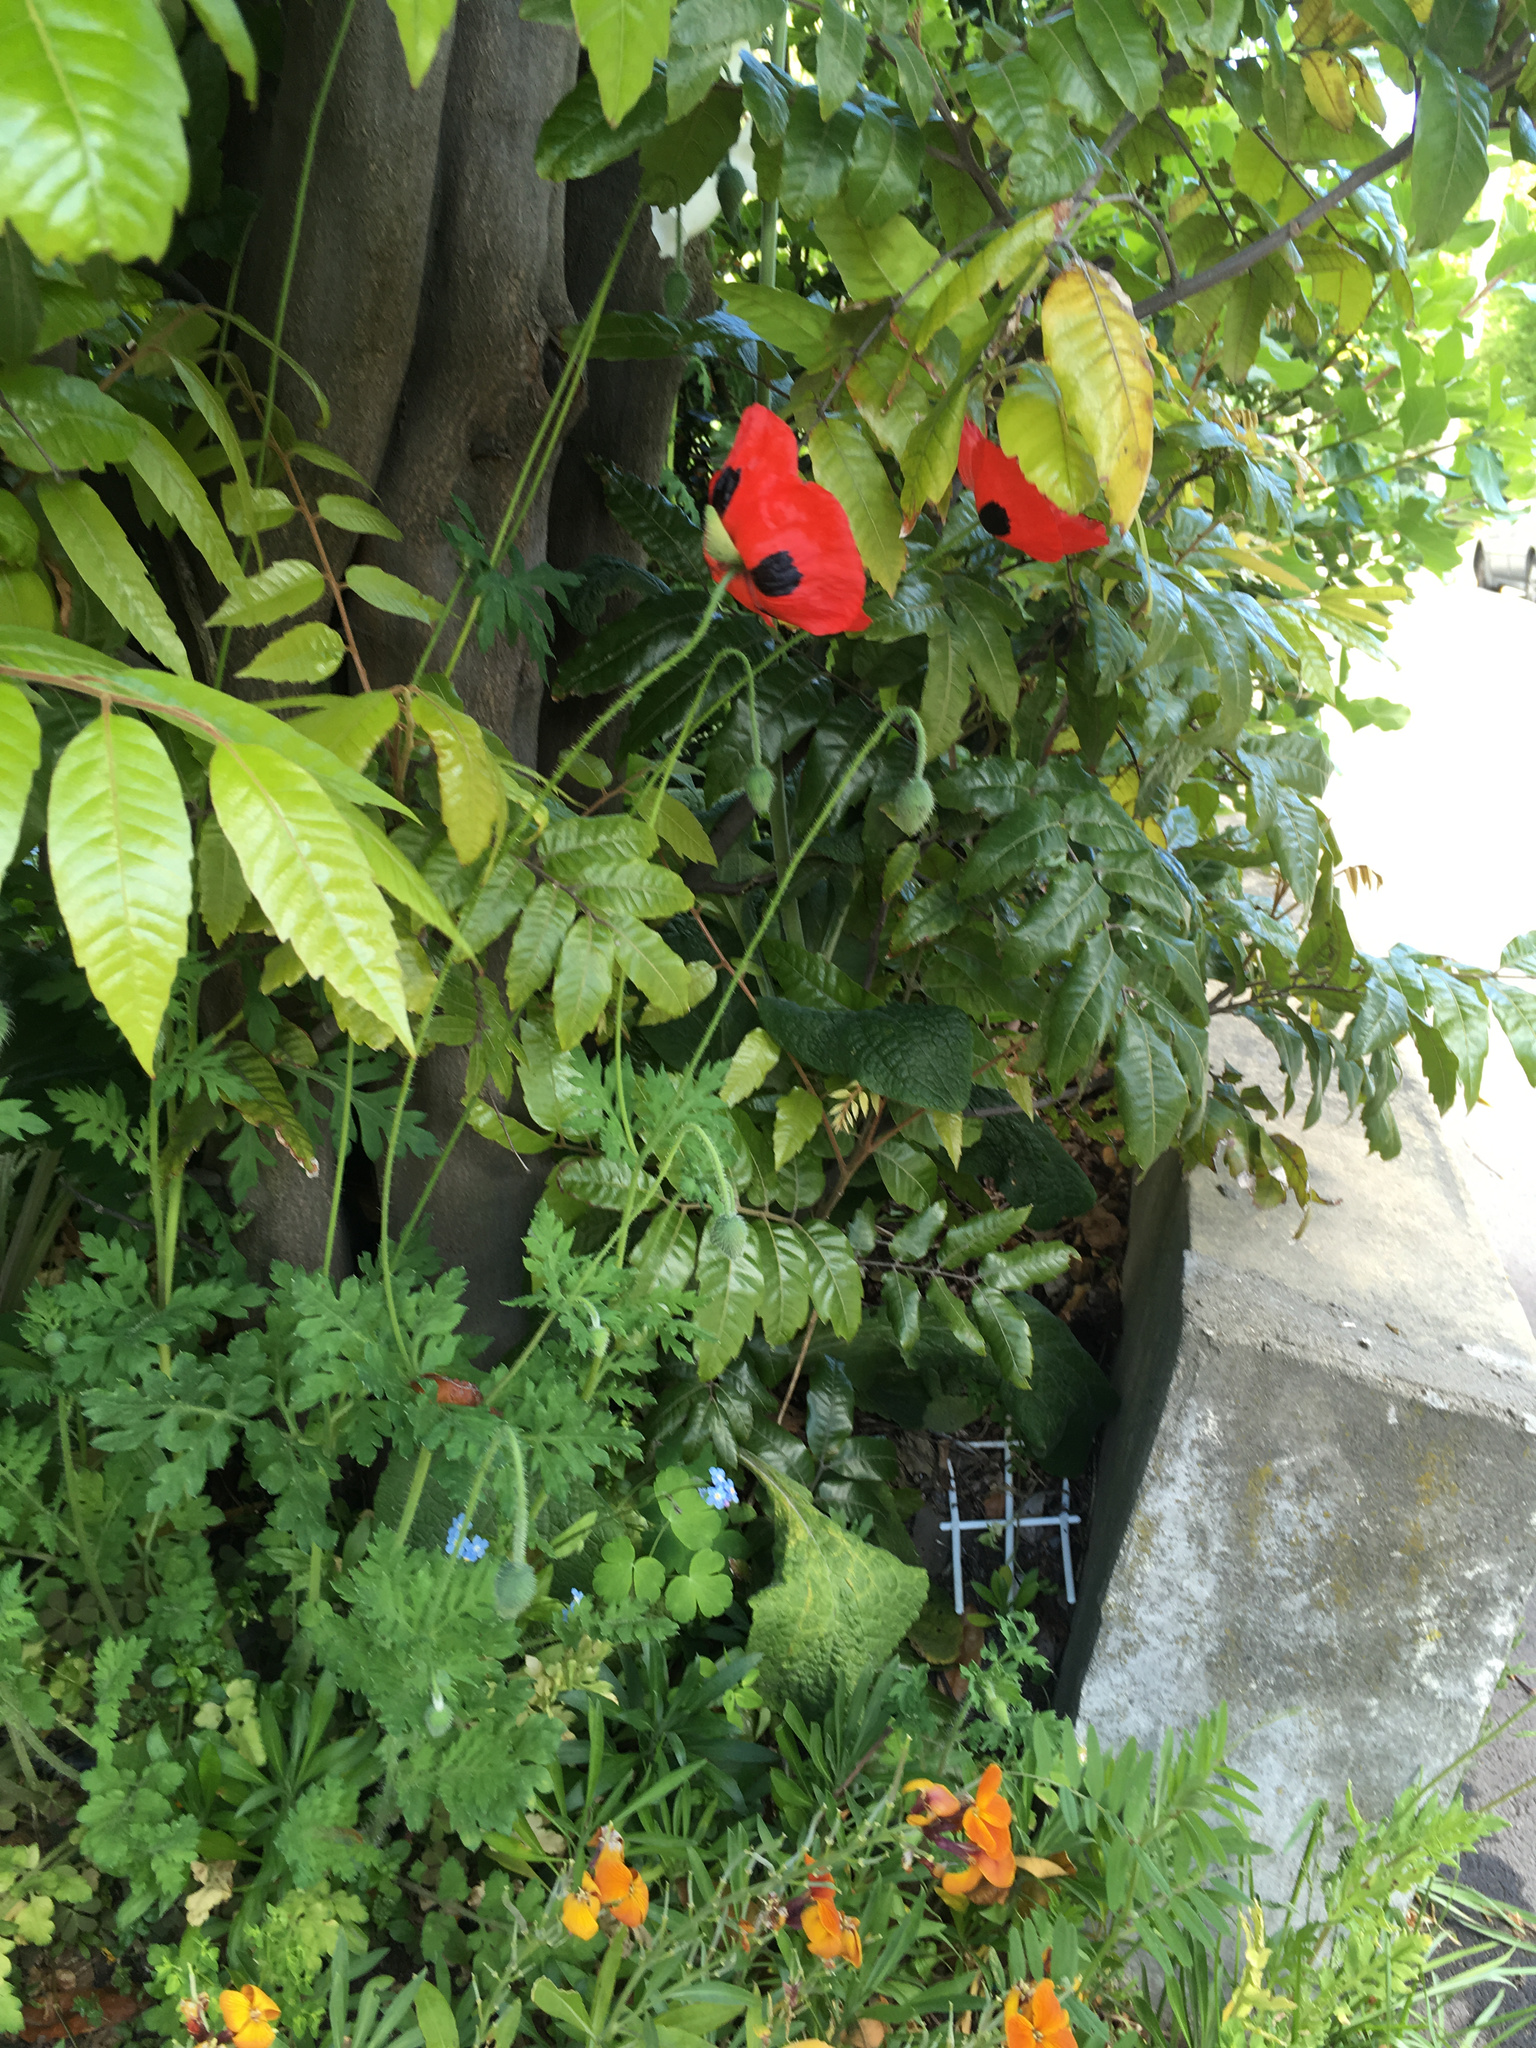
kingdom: Plantae
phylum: Tracheophyta
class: Magnoliopsida
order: Ranunculales
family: Papaveraceae
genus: Papaver
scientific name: Papaver rhoeas
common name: Corn poppy
